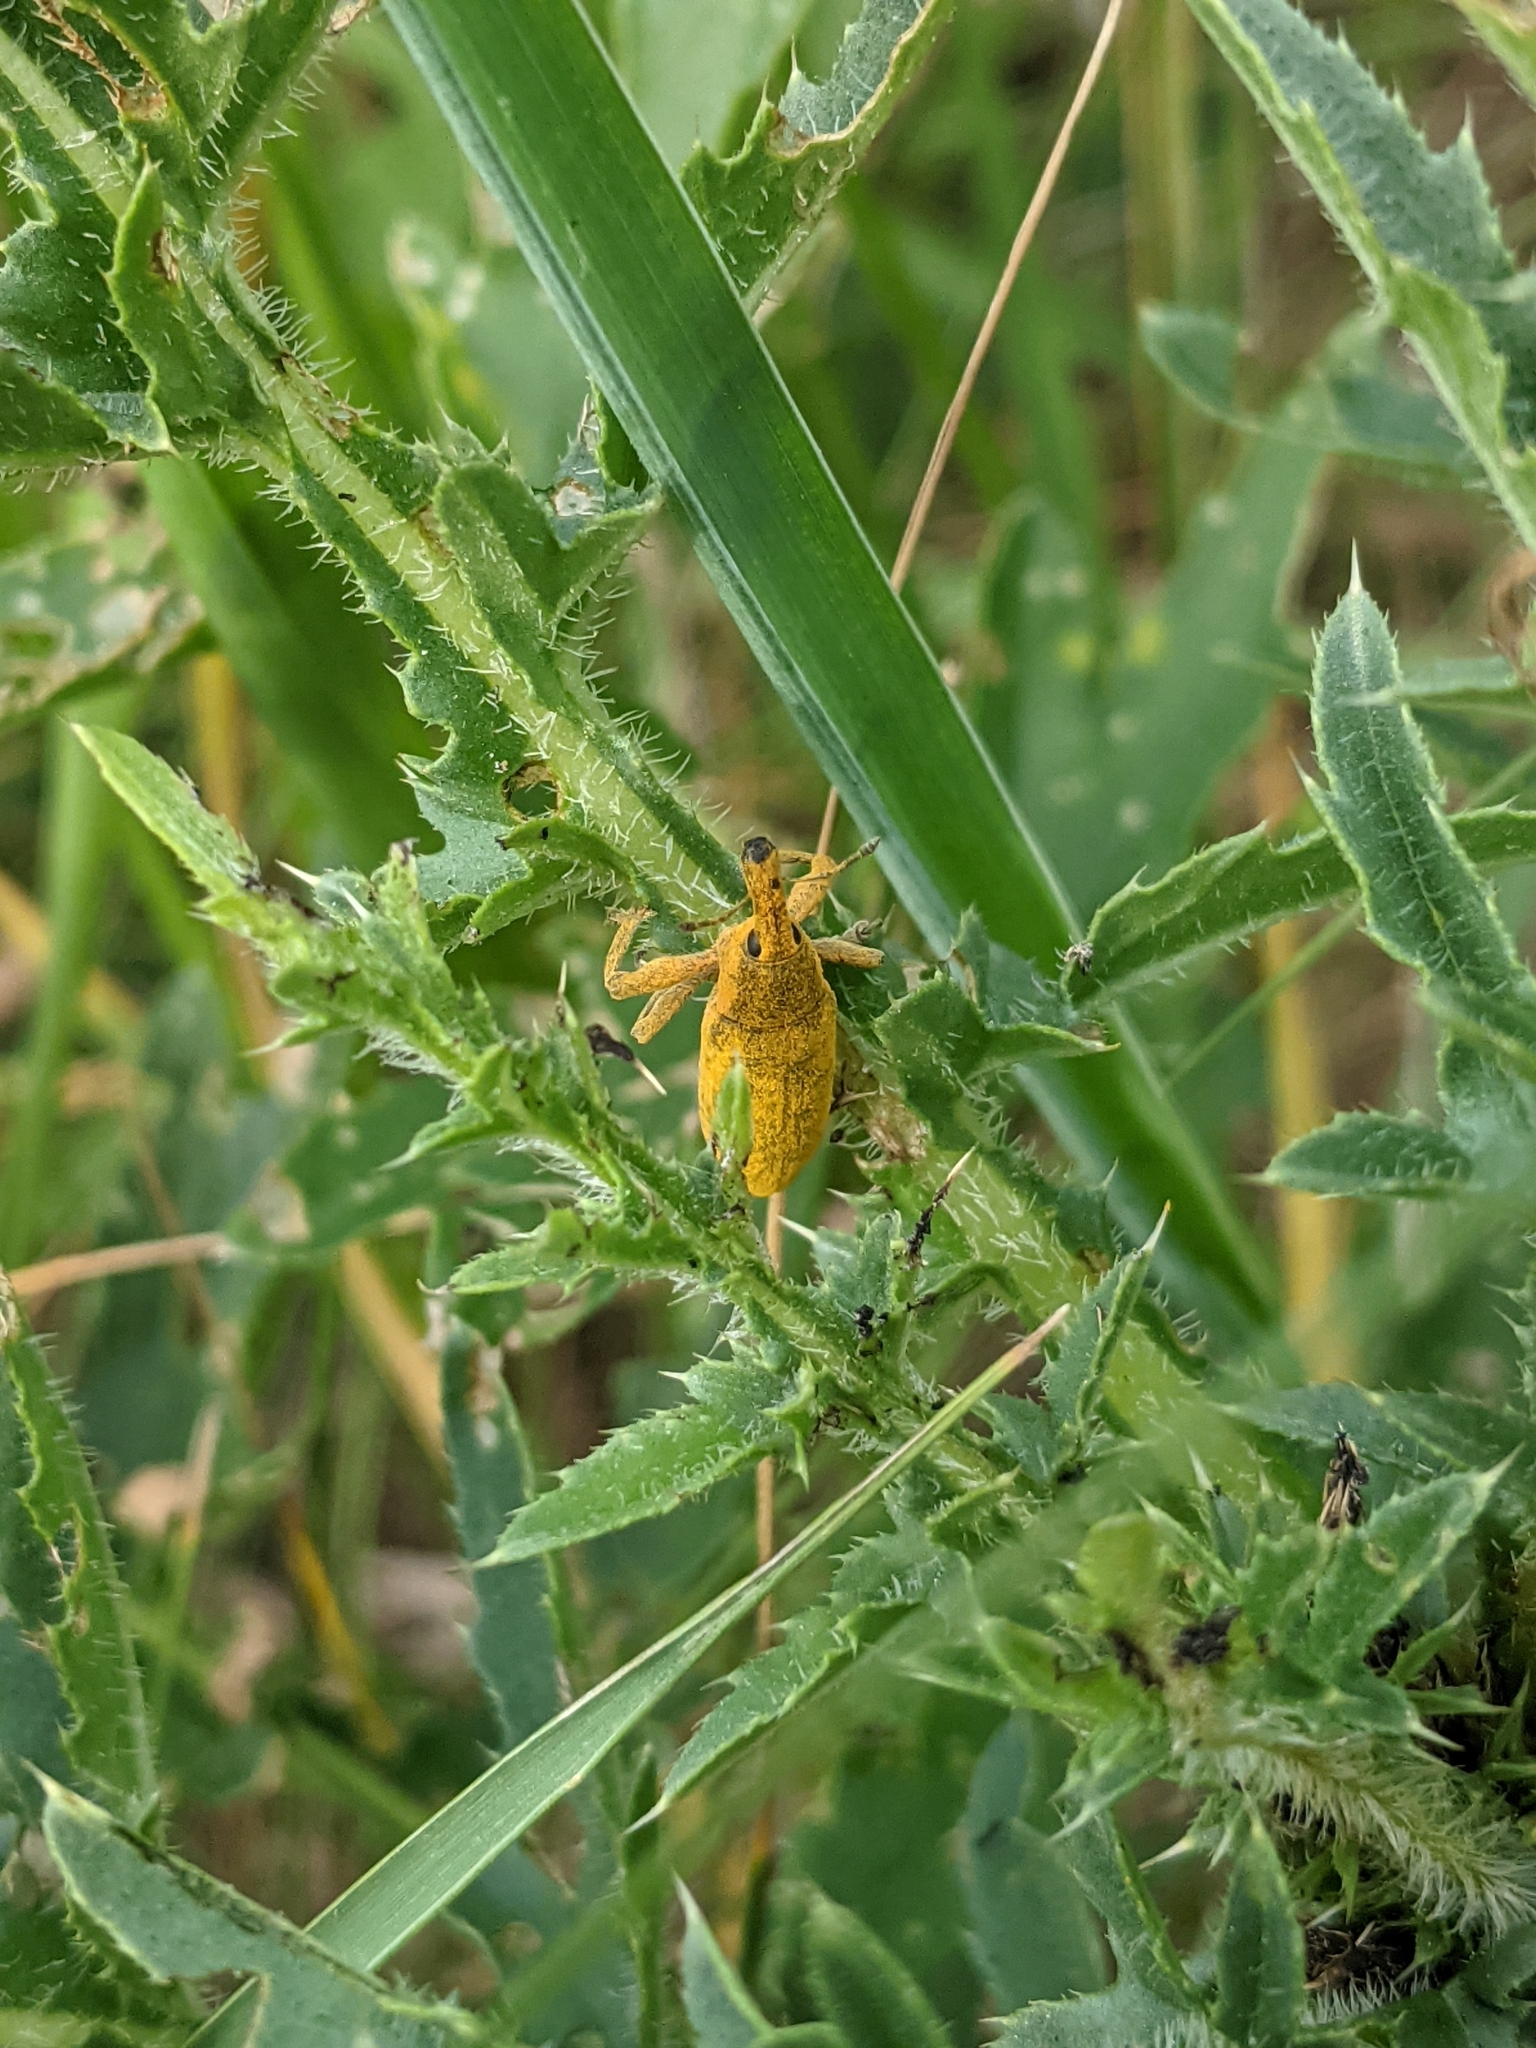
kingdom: Animalia
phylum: Arthropoda
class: Insecta
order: Coleoptera
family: Curculionidae
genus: Lixus
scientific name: Lixus pulverulentus
